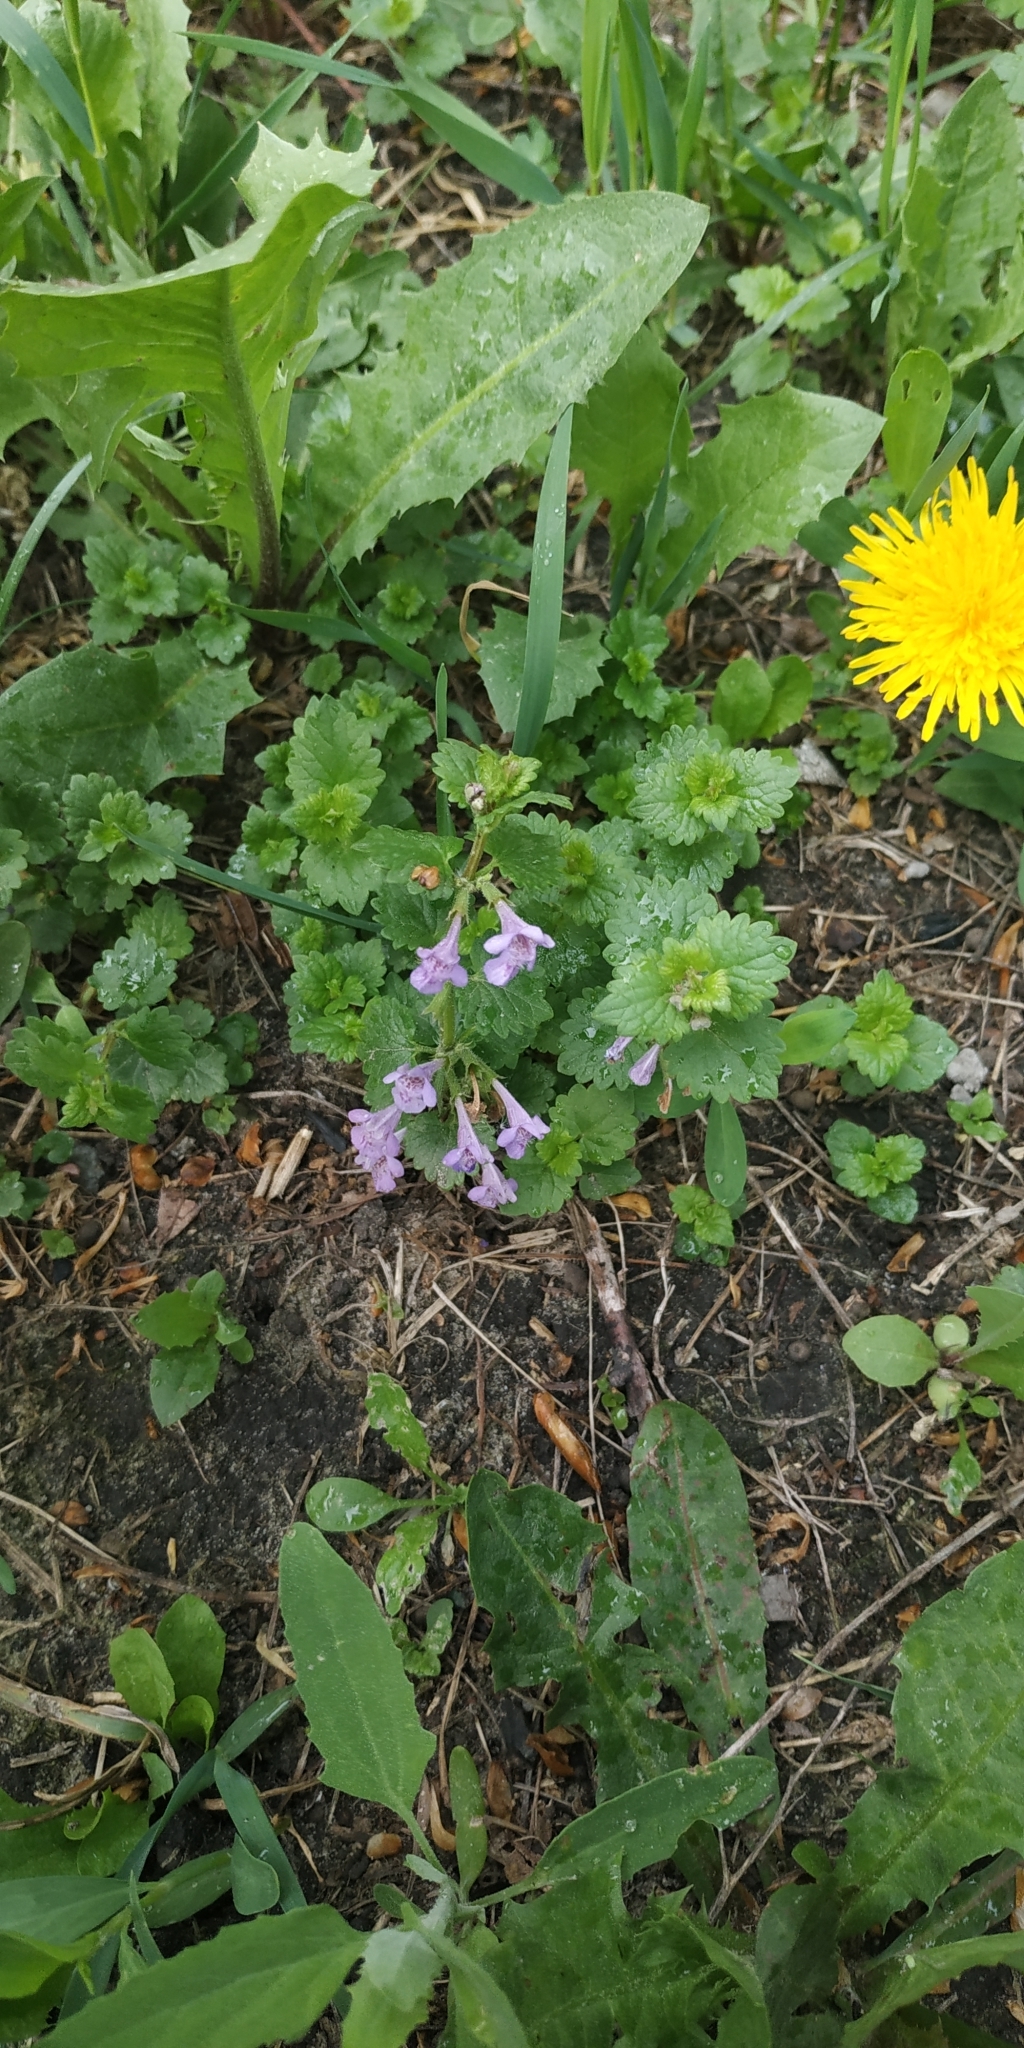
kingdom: Plantae
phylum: Tracheophyta
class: Magnoliopsida
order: Lamiales
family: Lamiaceae
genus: Glechoma
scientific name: Glechoma hederacea
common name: Ground ivy
